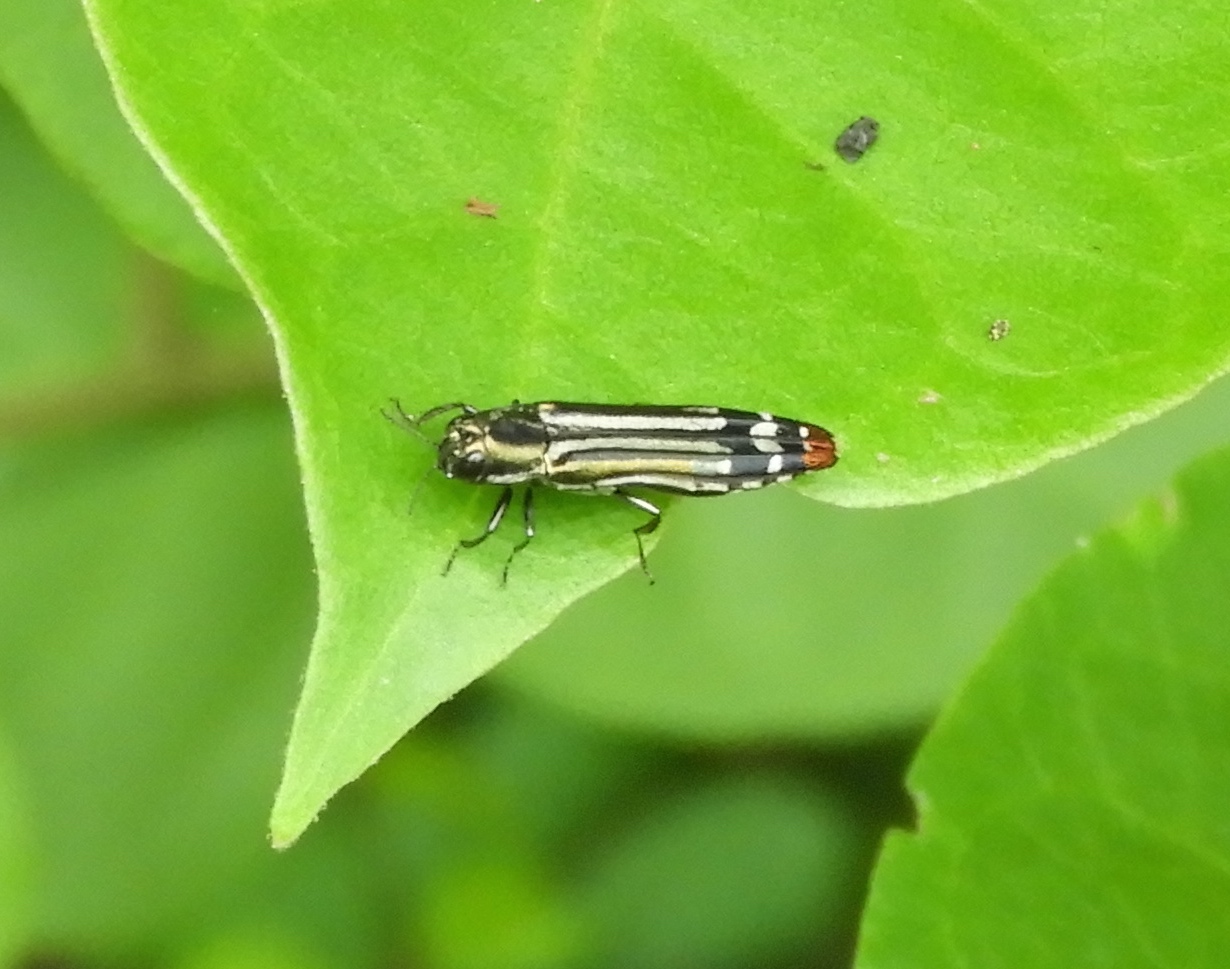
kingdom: Animalia
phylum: Arthropoda
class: Insecta
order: Coleoptera
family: Buprestidae
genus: Agrilus
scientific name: Agrilus catherinae
